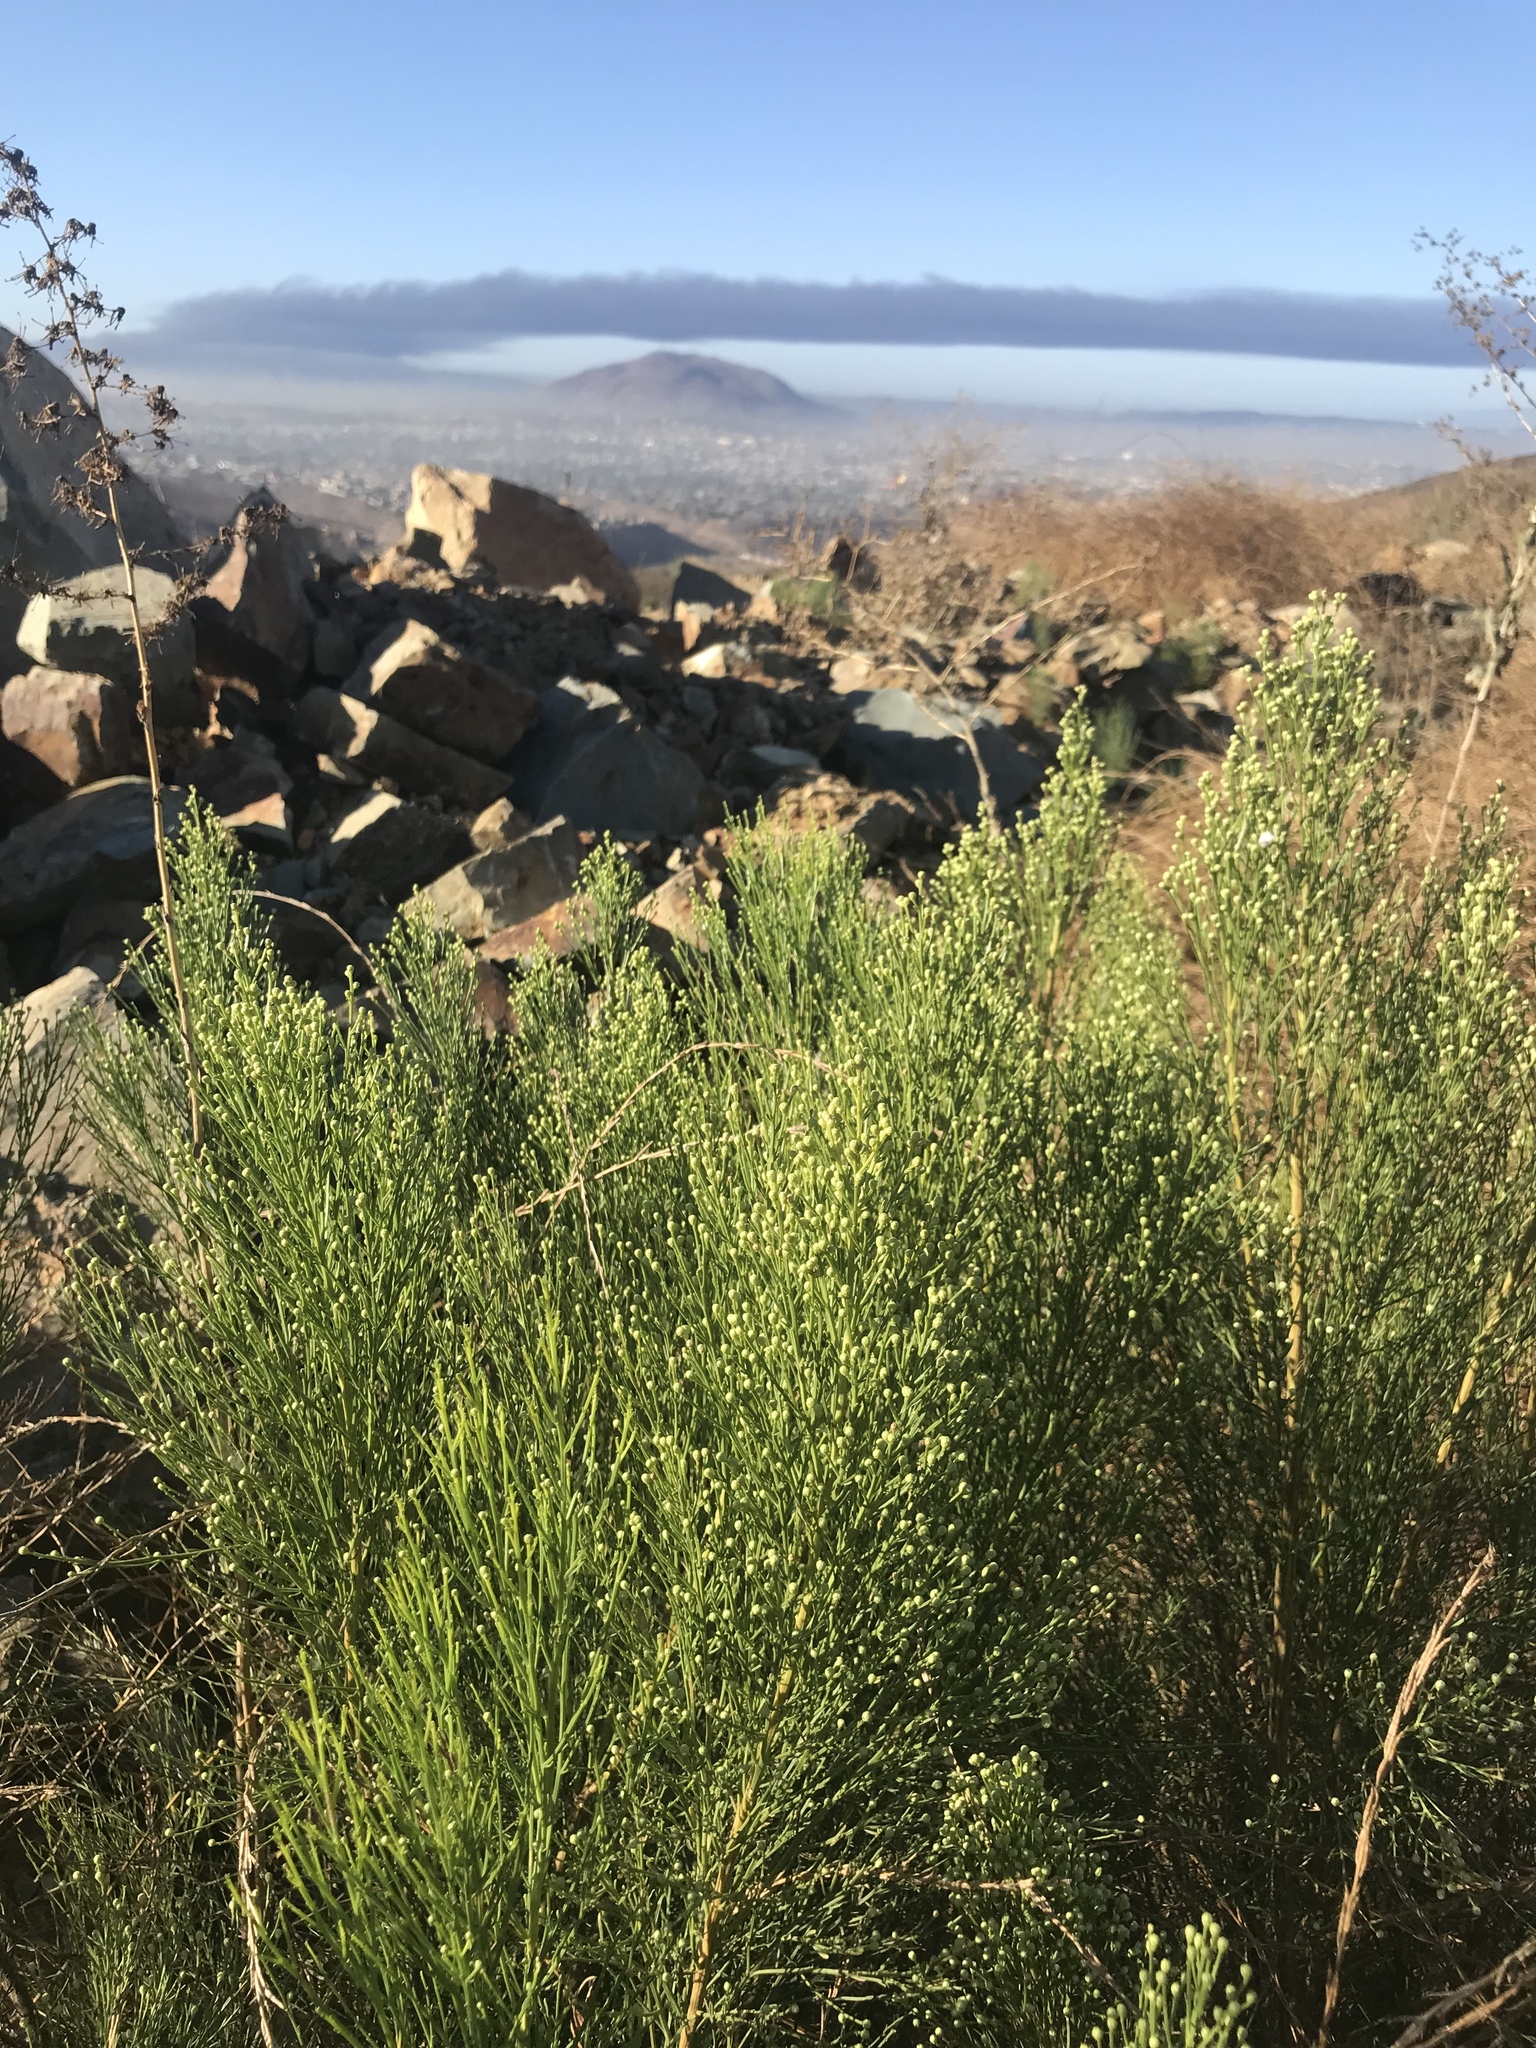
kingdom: Plantae
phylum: Tracheophyta
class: Magnoliopsida
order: Asterales
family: Asteraceae
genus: Baccharis
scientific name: Baccharis sarothroides
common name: Desert-broom
